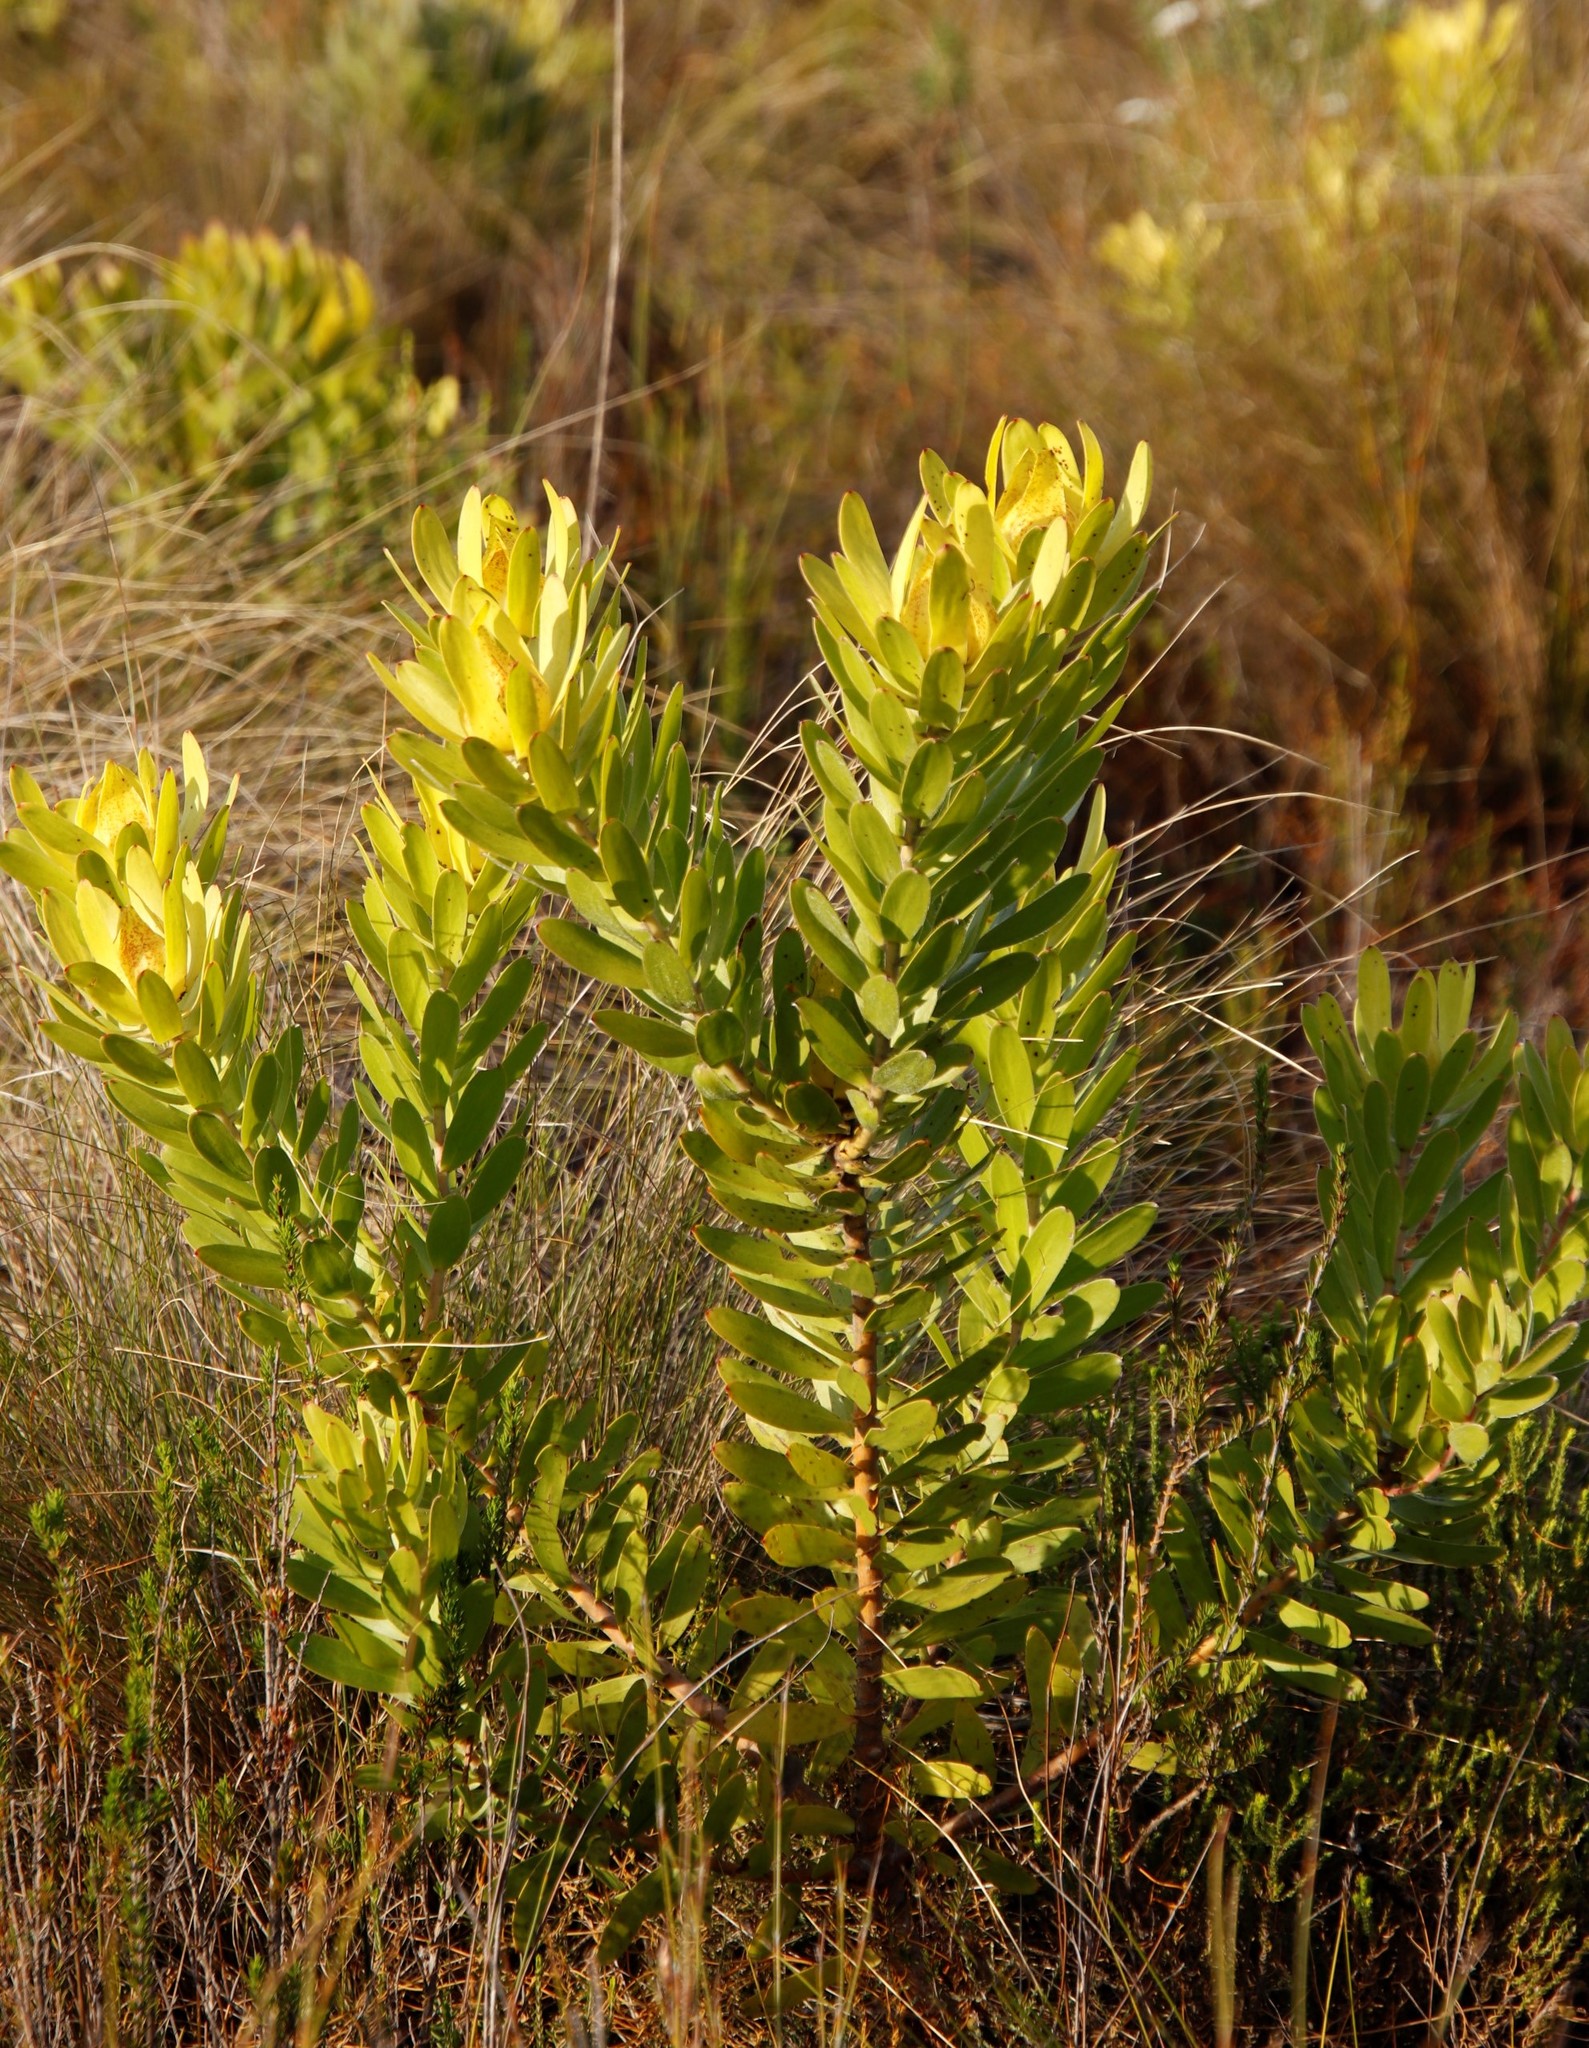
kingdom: Plantae
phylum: Tracheophyta
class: Magnoliopsida
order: Proteales
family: Proteaceae
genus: Leucadendron
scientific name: Leucadendron laureolum
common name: Golden sunshinebush
